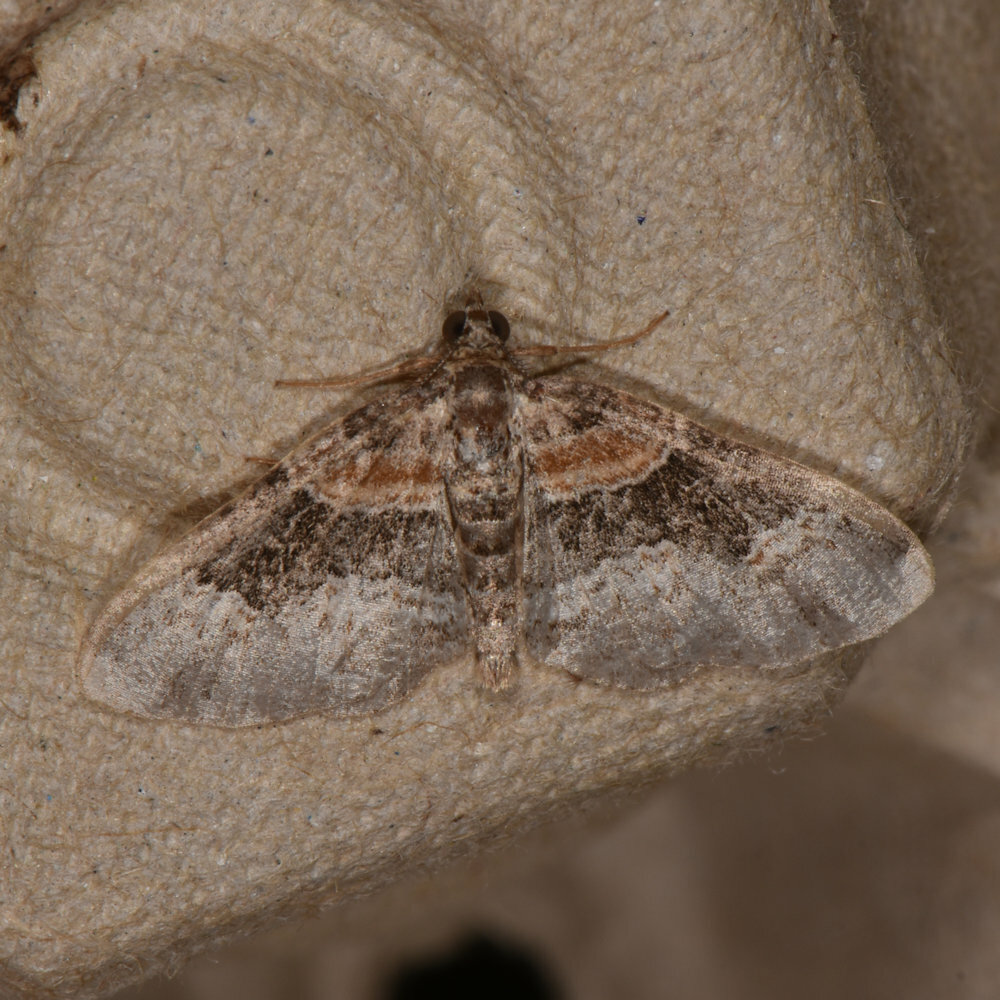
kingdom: Animalia
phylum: Arthropoda
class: Insecta
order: Lepidoptera
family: Geometridae
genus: Xanthorhoe
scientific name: Xanthorhoe ferrugata
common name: Dark-barred twin-spot carpet
